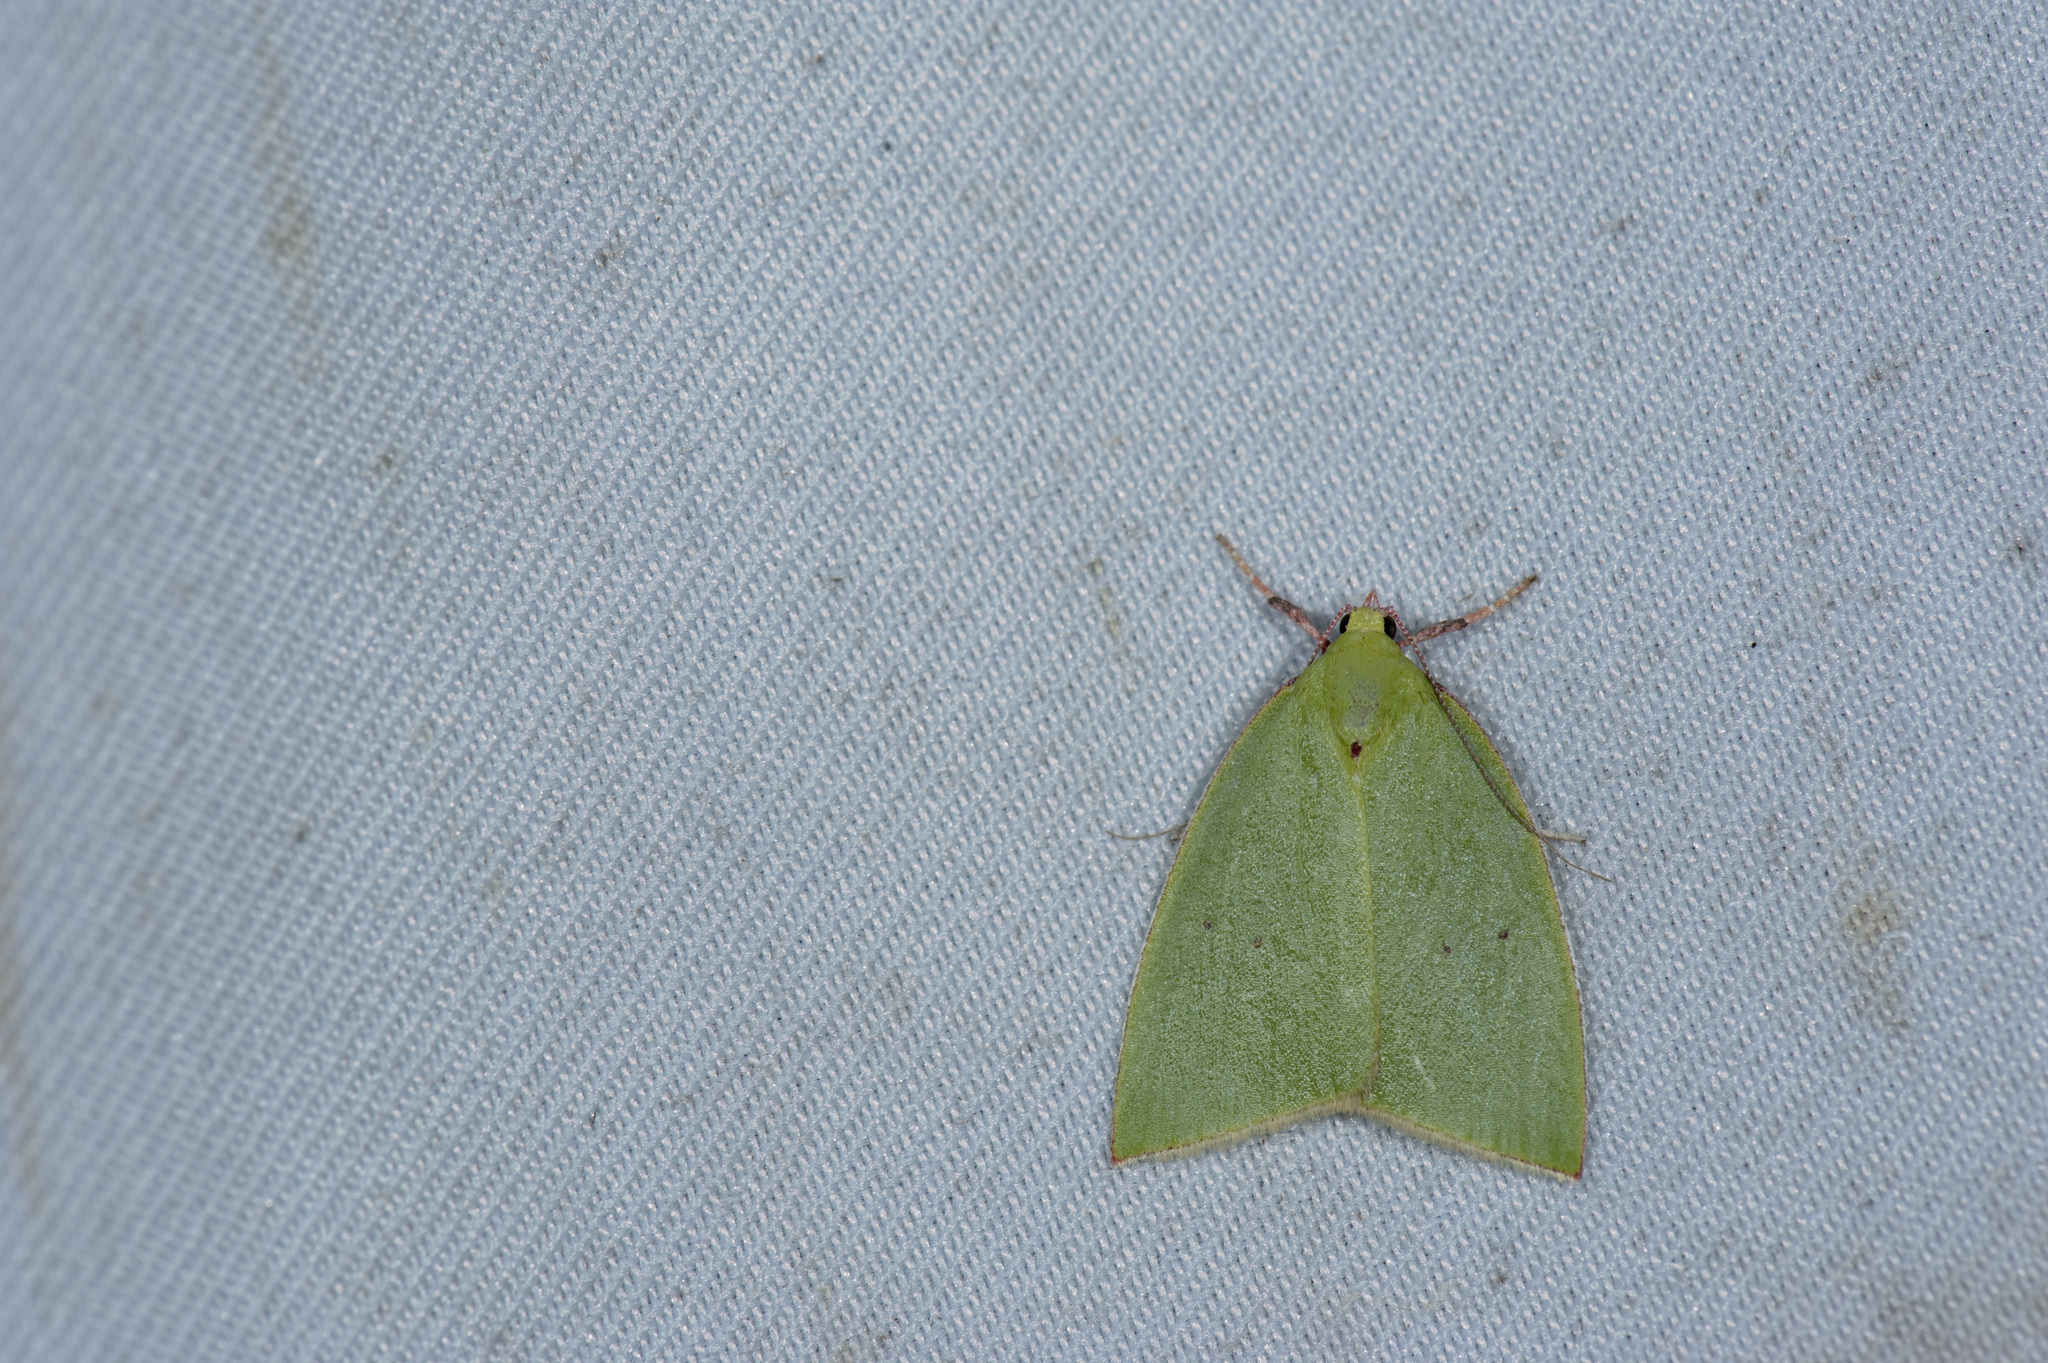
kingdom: Animalia
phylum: Arthropoda
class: Insecta
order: Lepidoptera
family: Nolidae
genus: Tyana
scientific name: Tyana falcata
